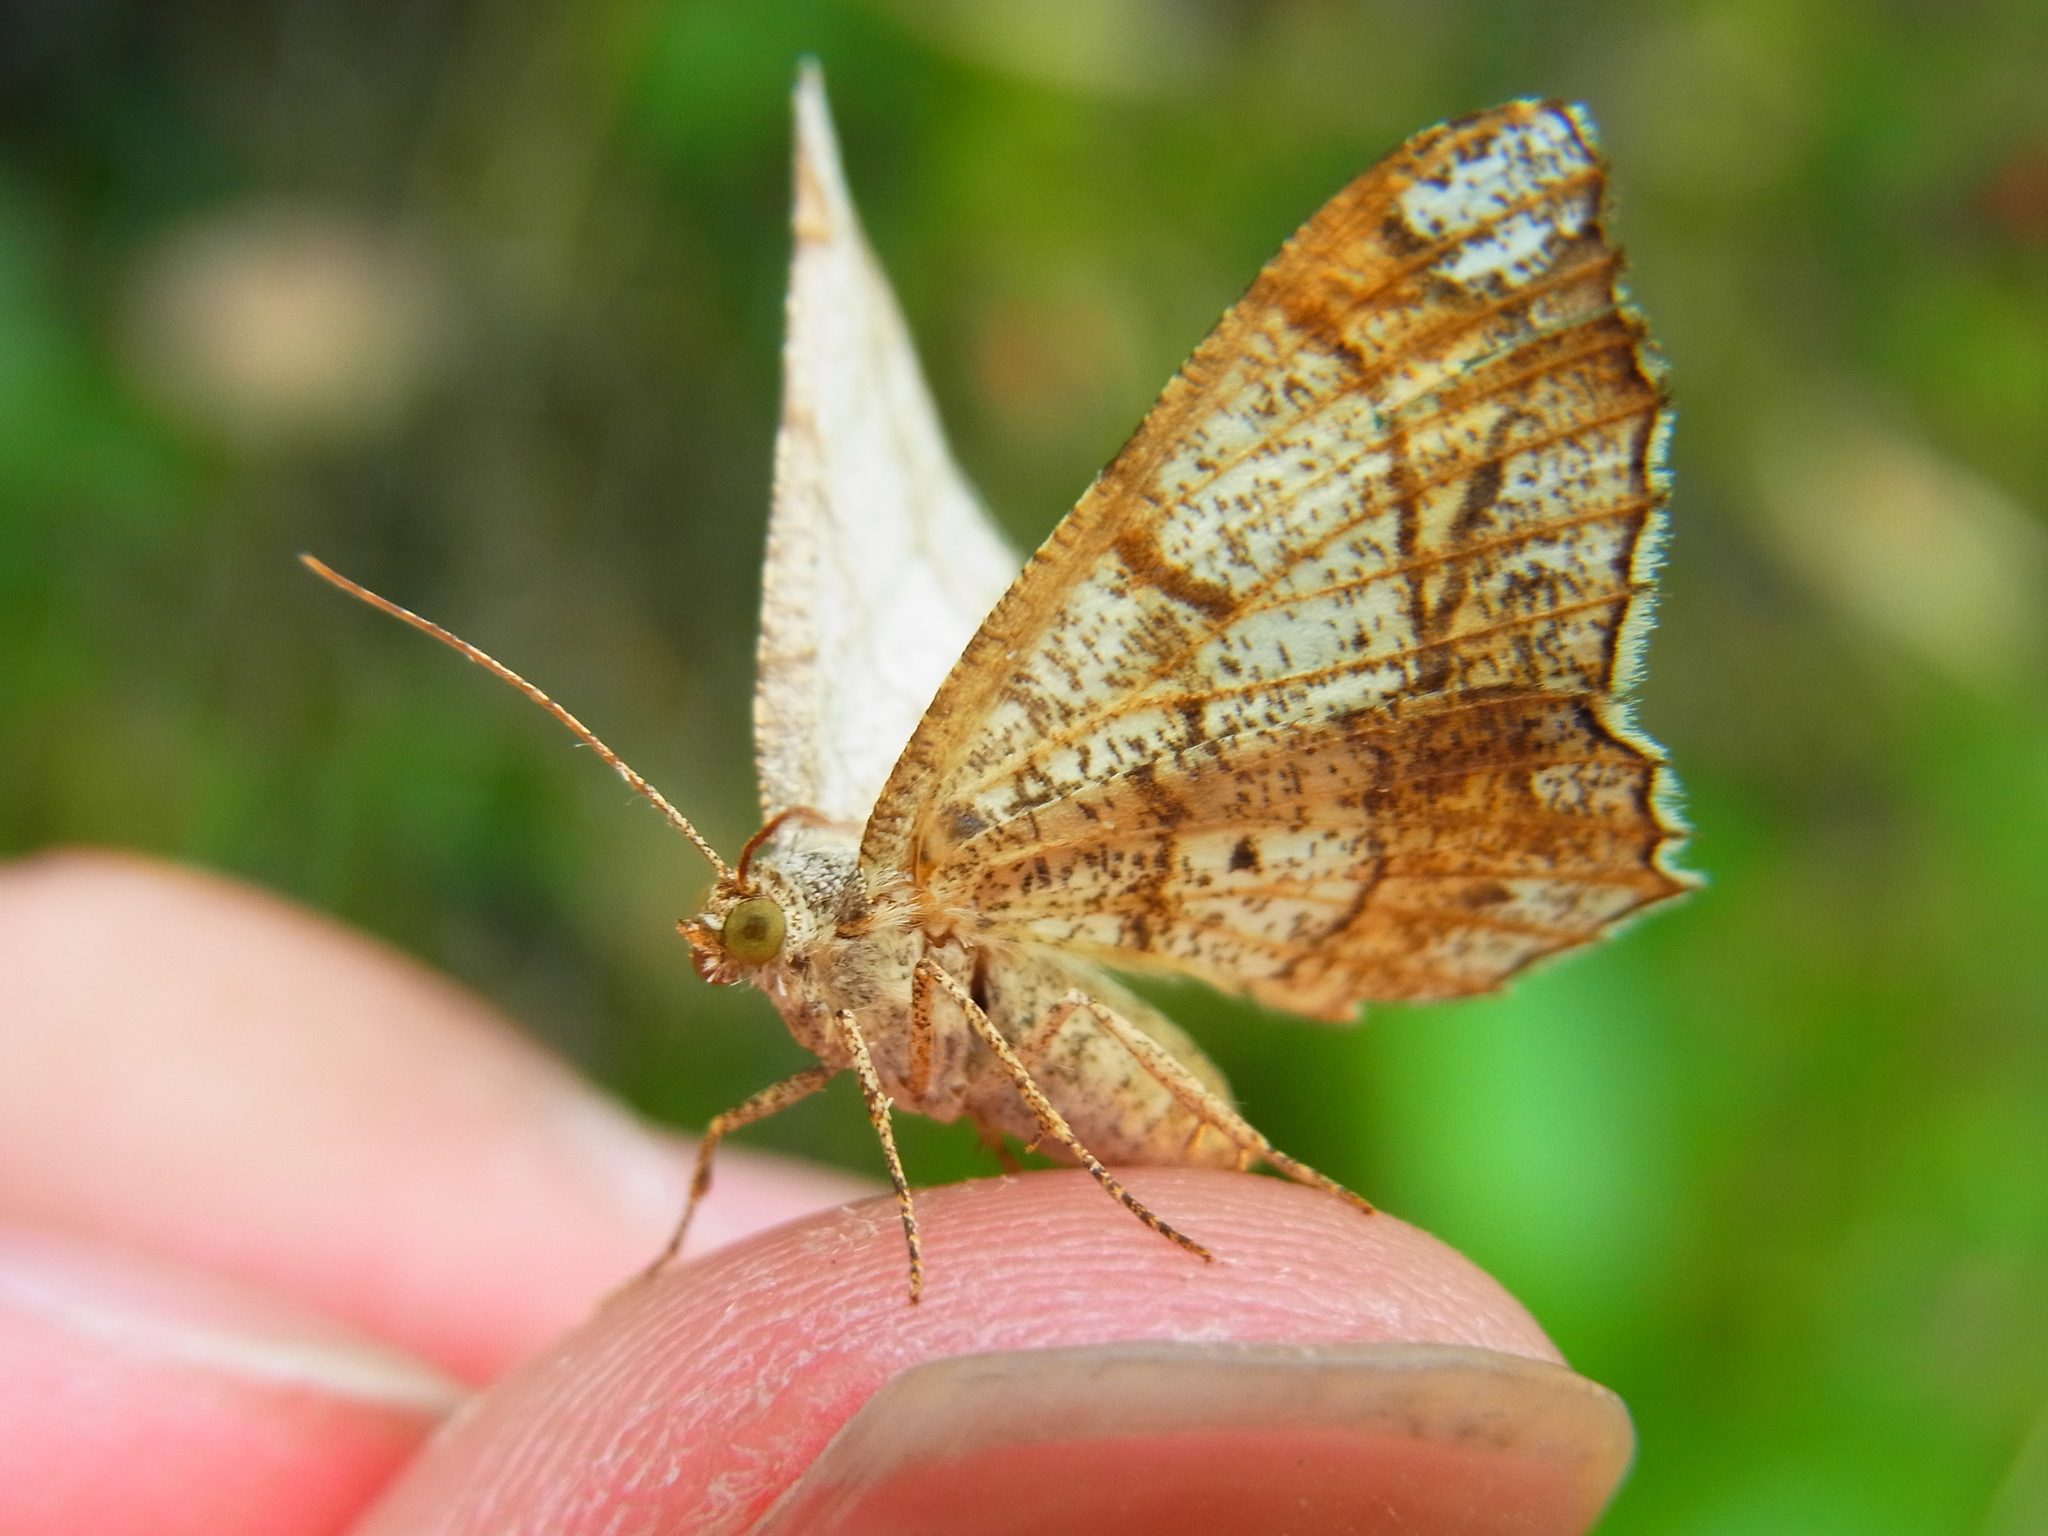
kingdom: Animalia
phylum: Arthropoda
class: Insecta
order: Lepidoptera
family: Geometridae
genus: Chiasmia
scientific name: Chiasmia defixaria
